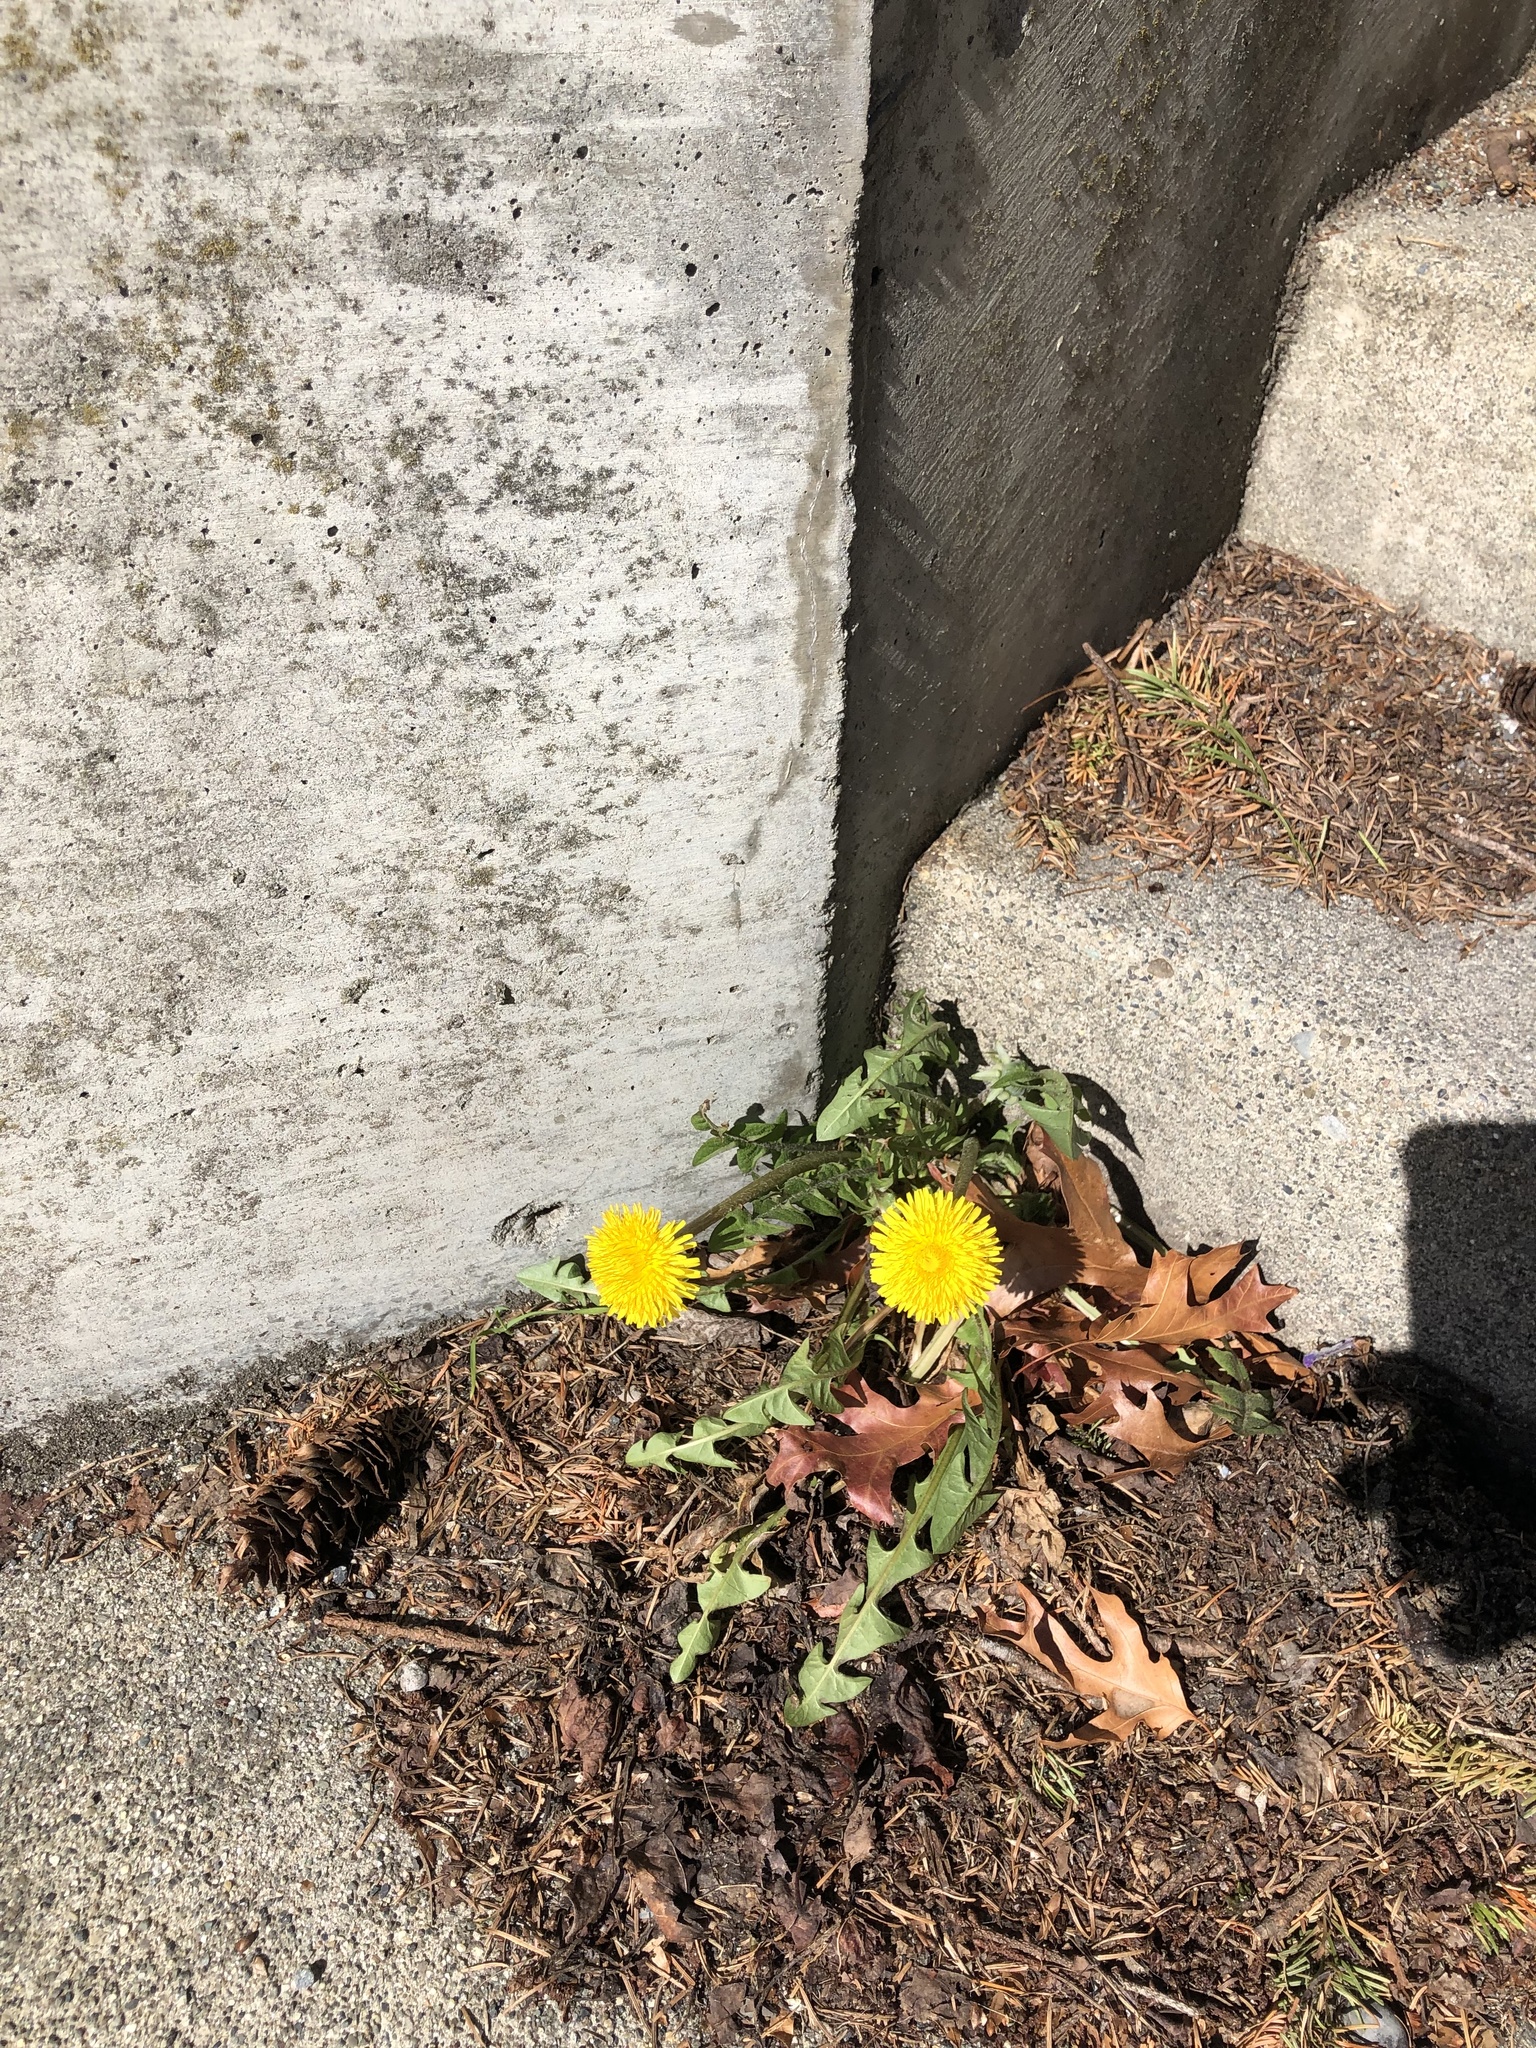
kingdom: Plantae
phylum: Tracheophyta
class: Magnoliopsida
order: Asterales
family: Asteraceae
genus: Taraxacum
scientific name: Taraxacum officinale
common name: Common dandelion
